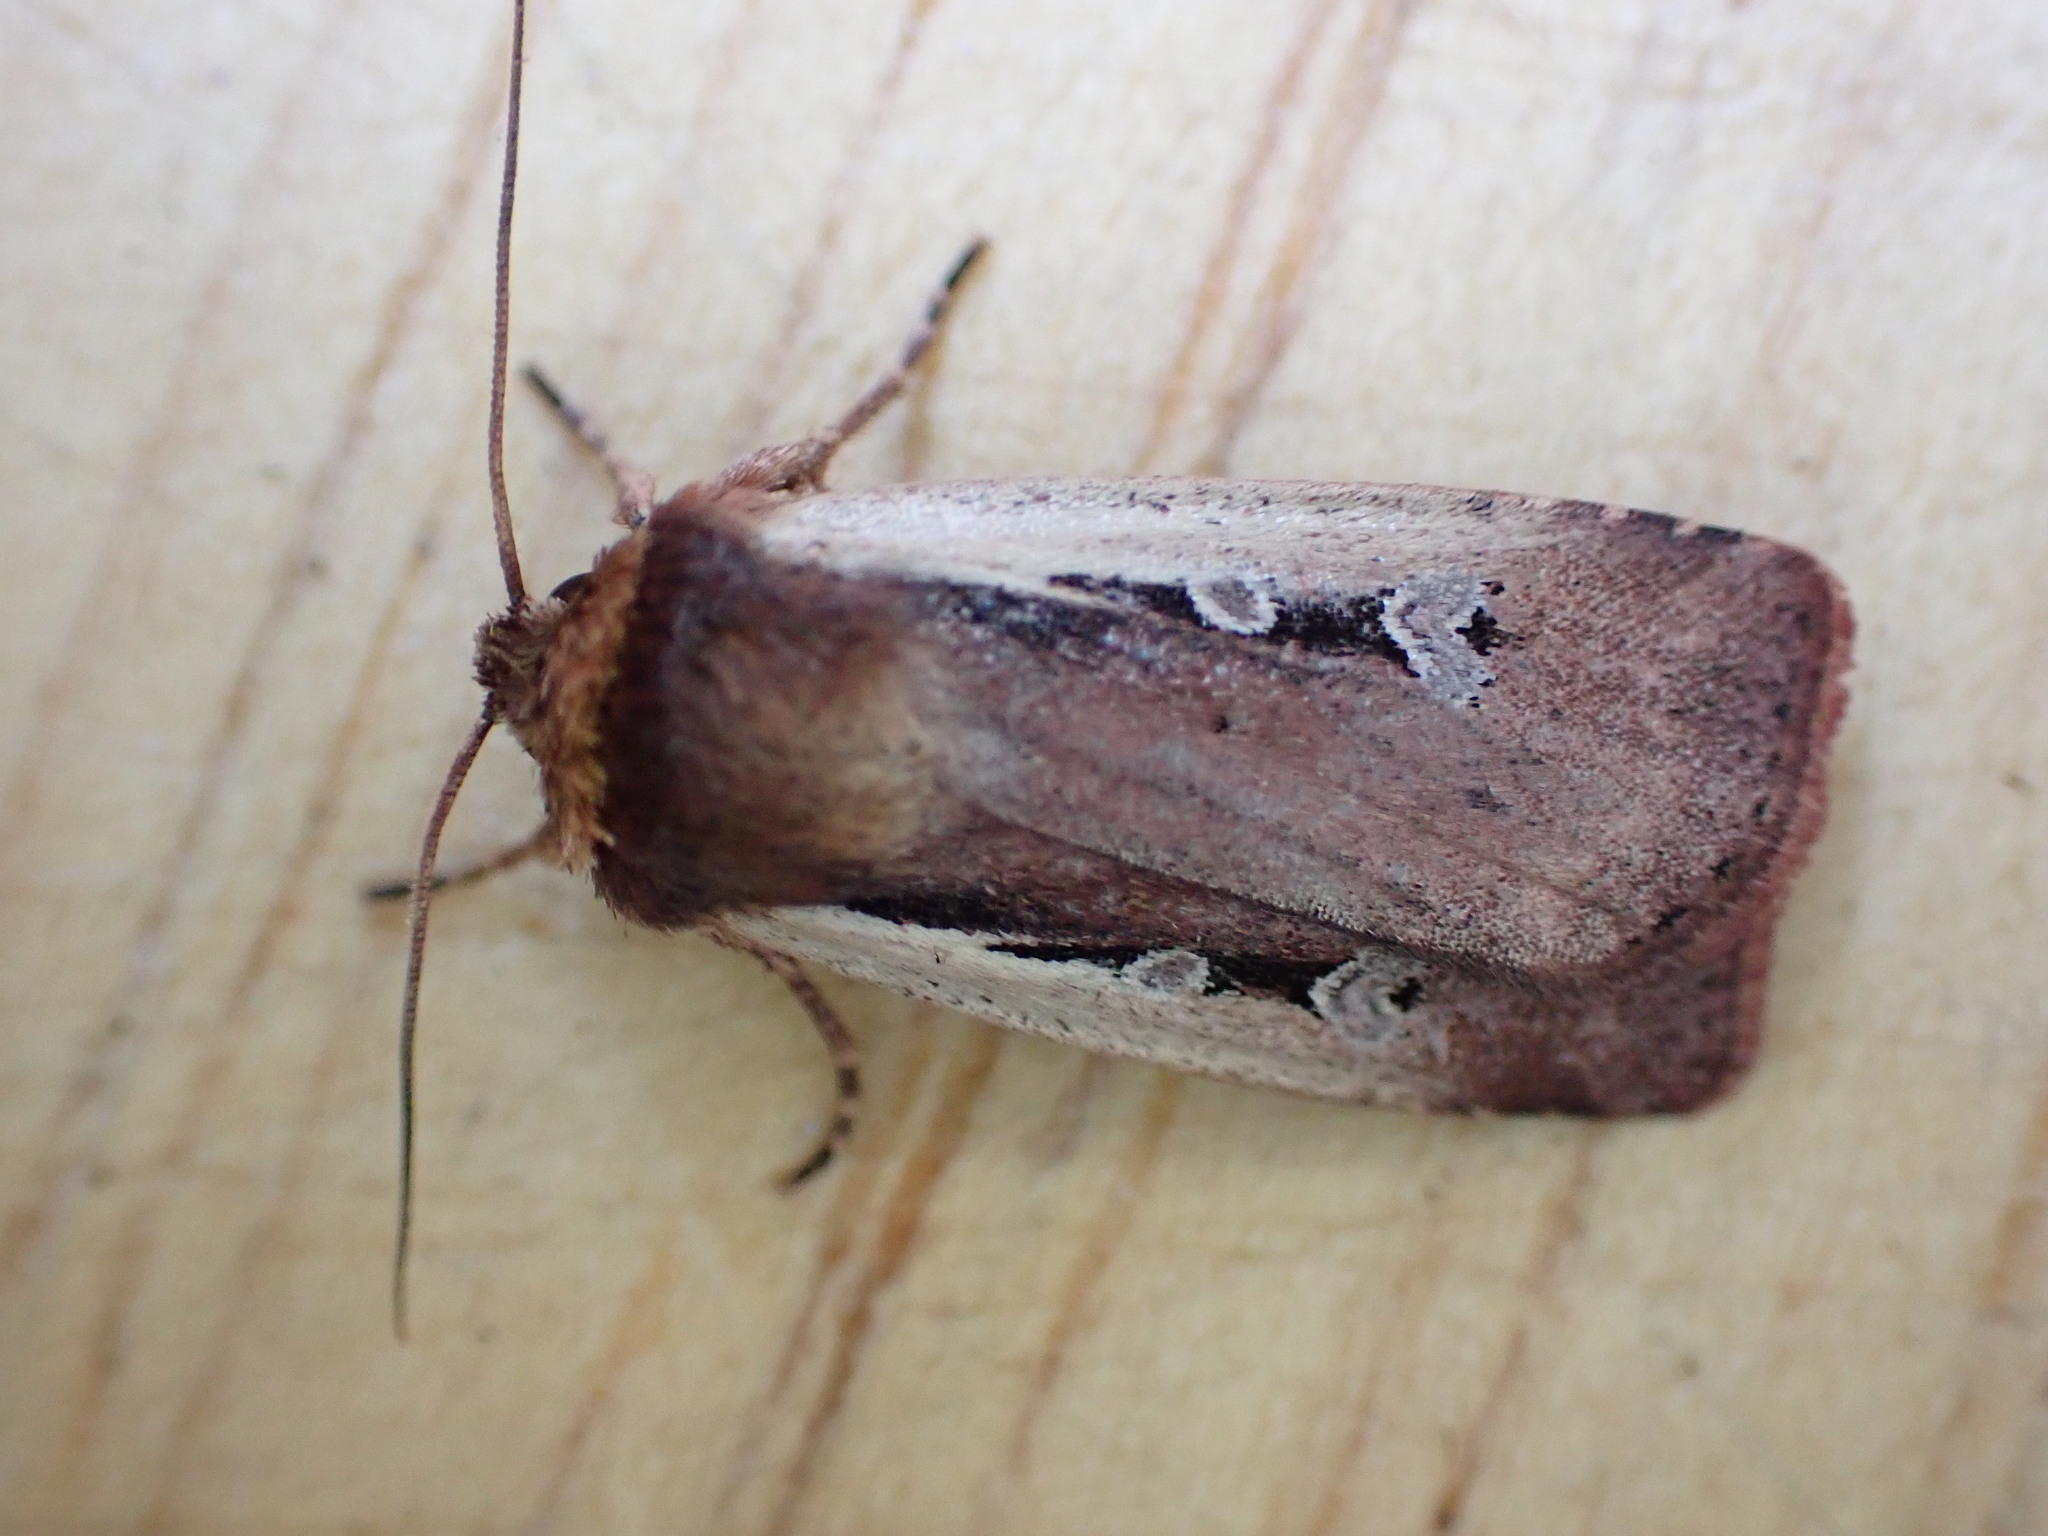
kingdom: Animalia
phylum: Arthropoda
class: Insecta
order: Lepidoptera
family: Noctuidae
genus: Ochropleura
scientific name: Ochropleura plecta
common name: Flame shoulder
